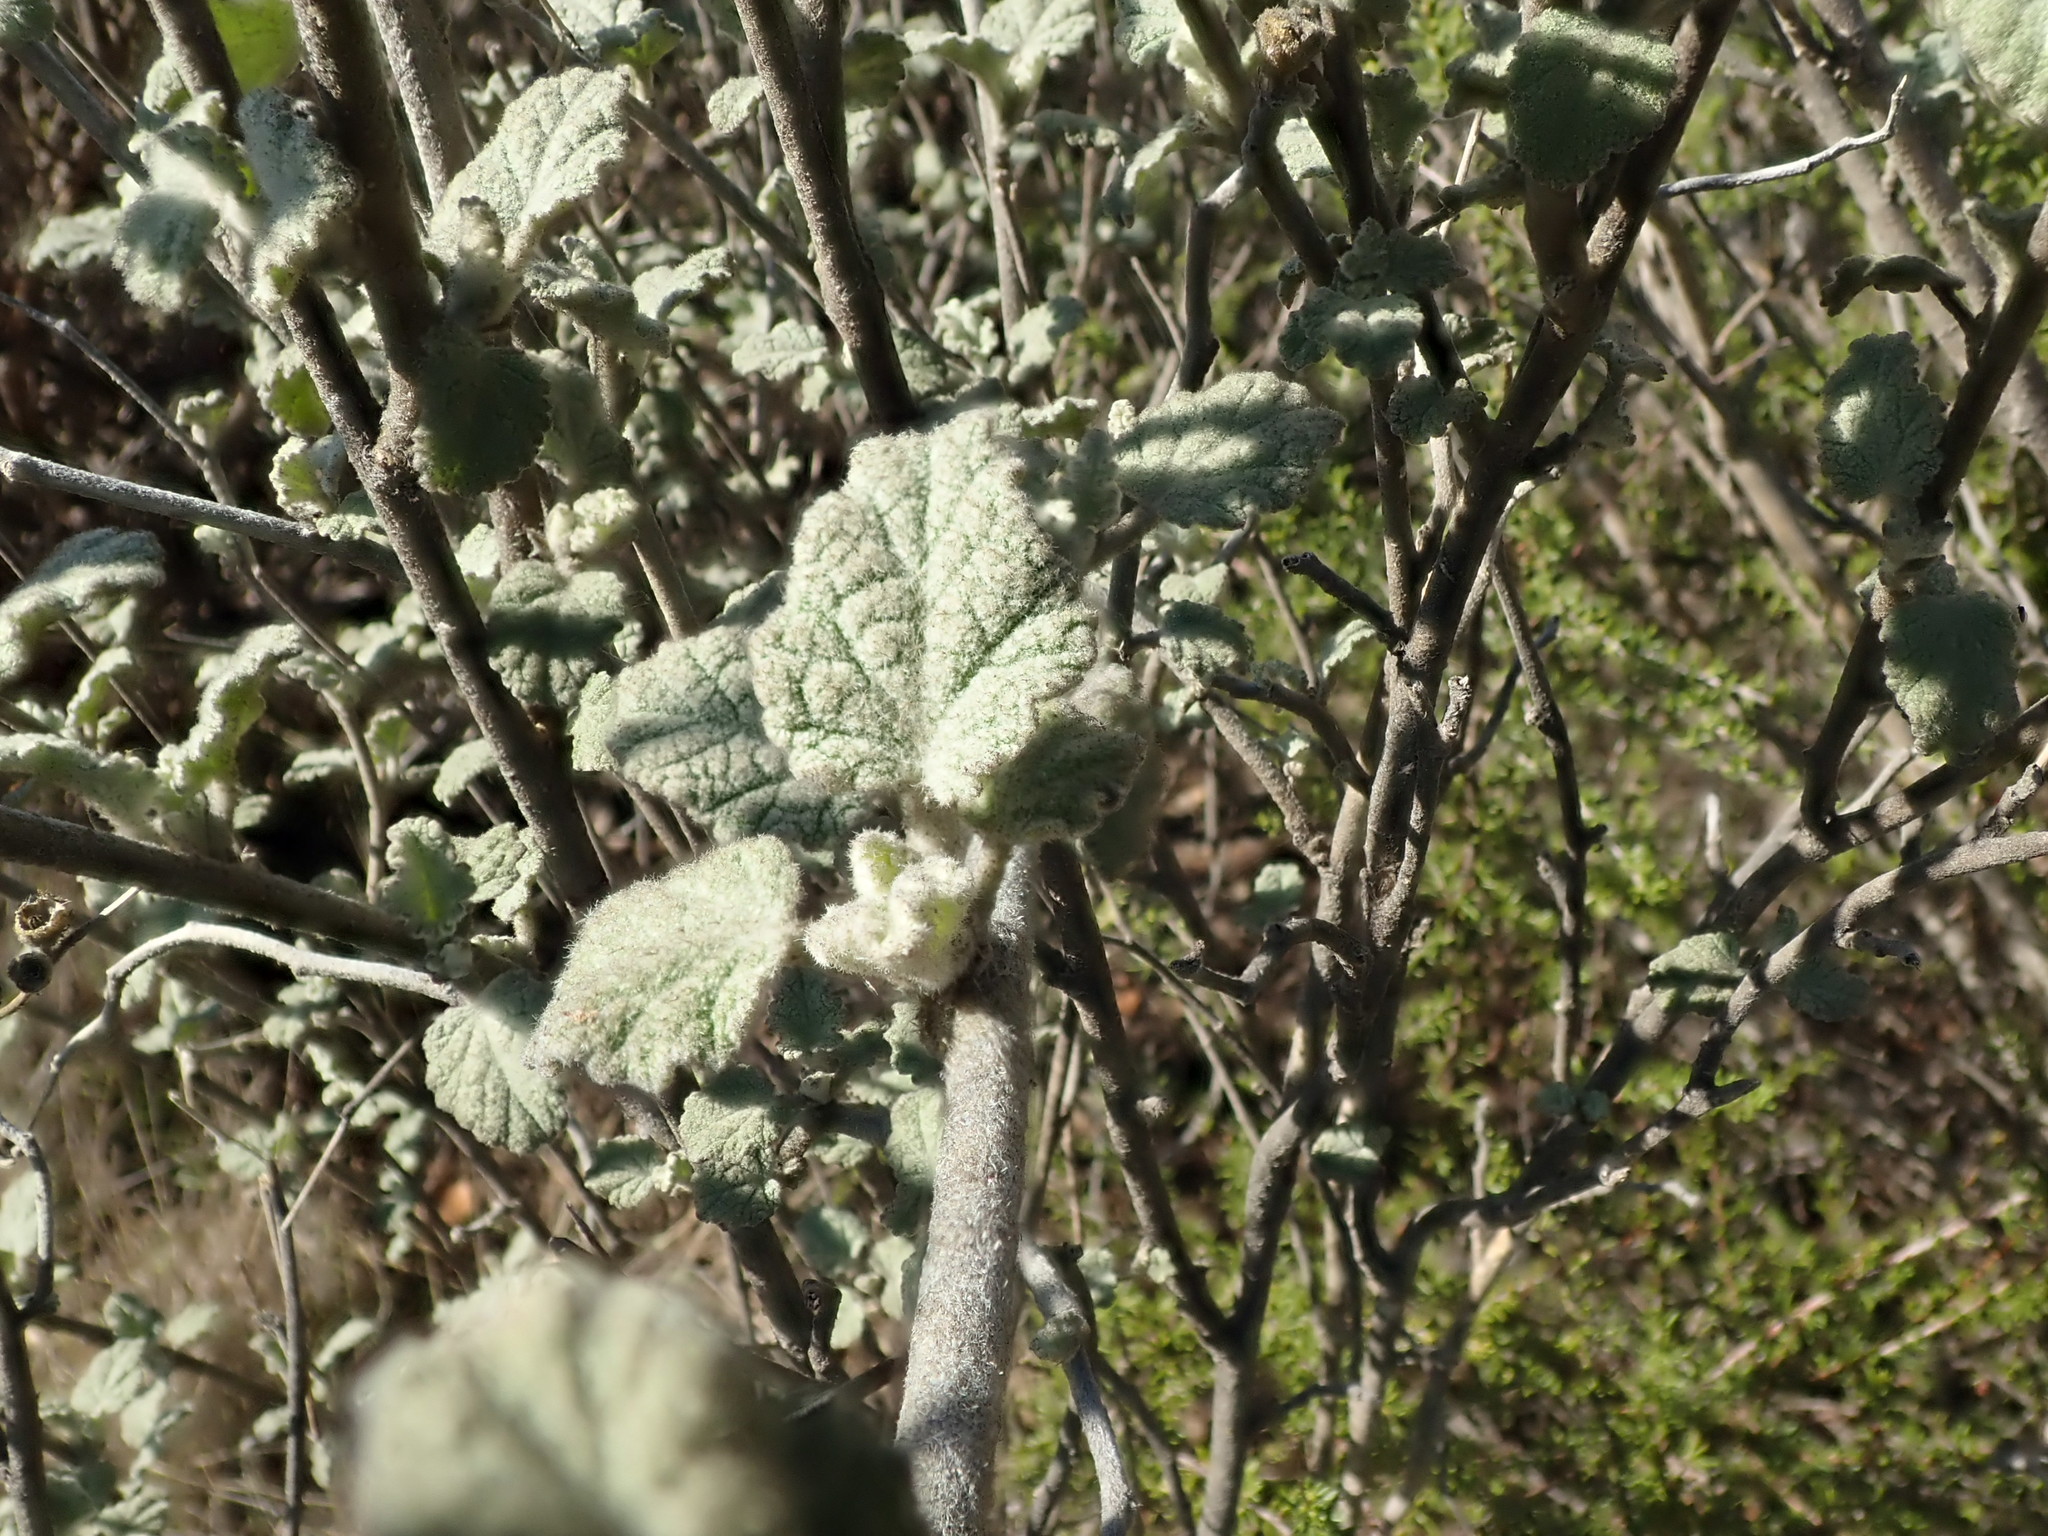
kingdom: Plantae
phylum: Tracheophyta
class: Magnoliopsida
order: Malvales
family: Malvaceae
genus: Malacothamnus
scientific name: Malacothamnus fasciculatus
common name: Sant cruz island bush-mallow
